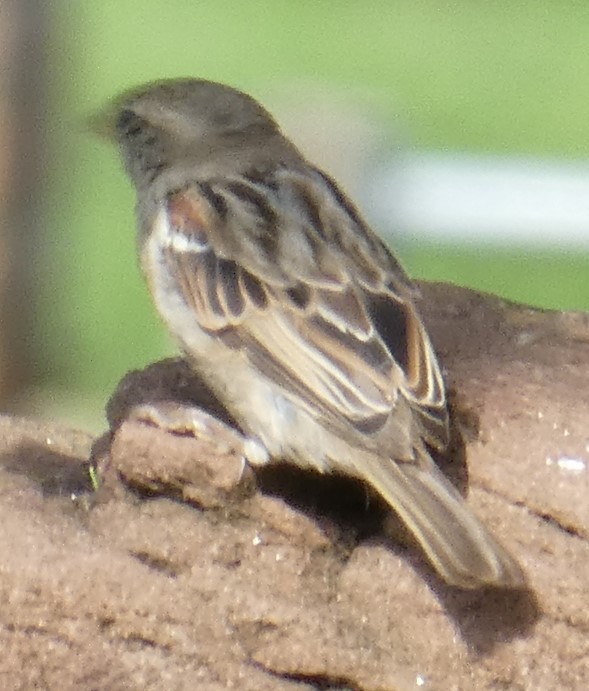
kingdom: Animalia
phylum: Chordata
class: Aves
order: Passeriformes
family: Passeridae
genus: Passer
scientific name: Passer domesticus
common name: House sparrow
